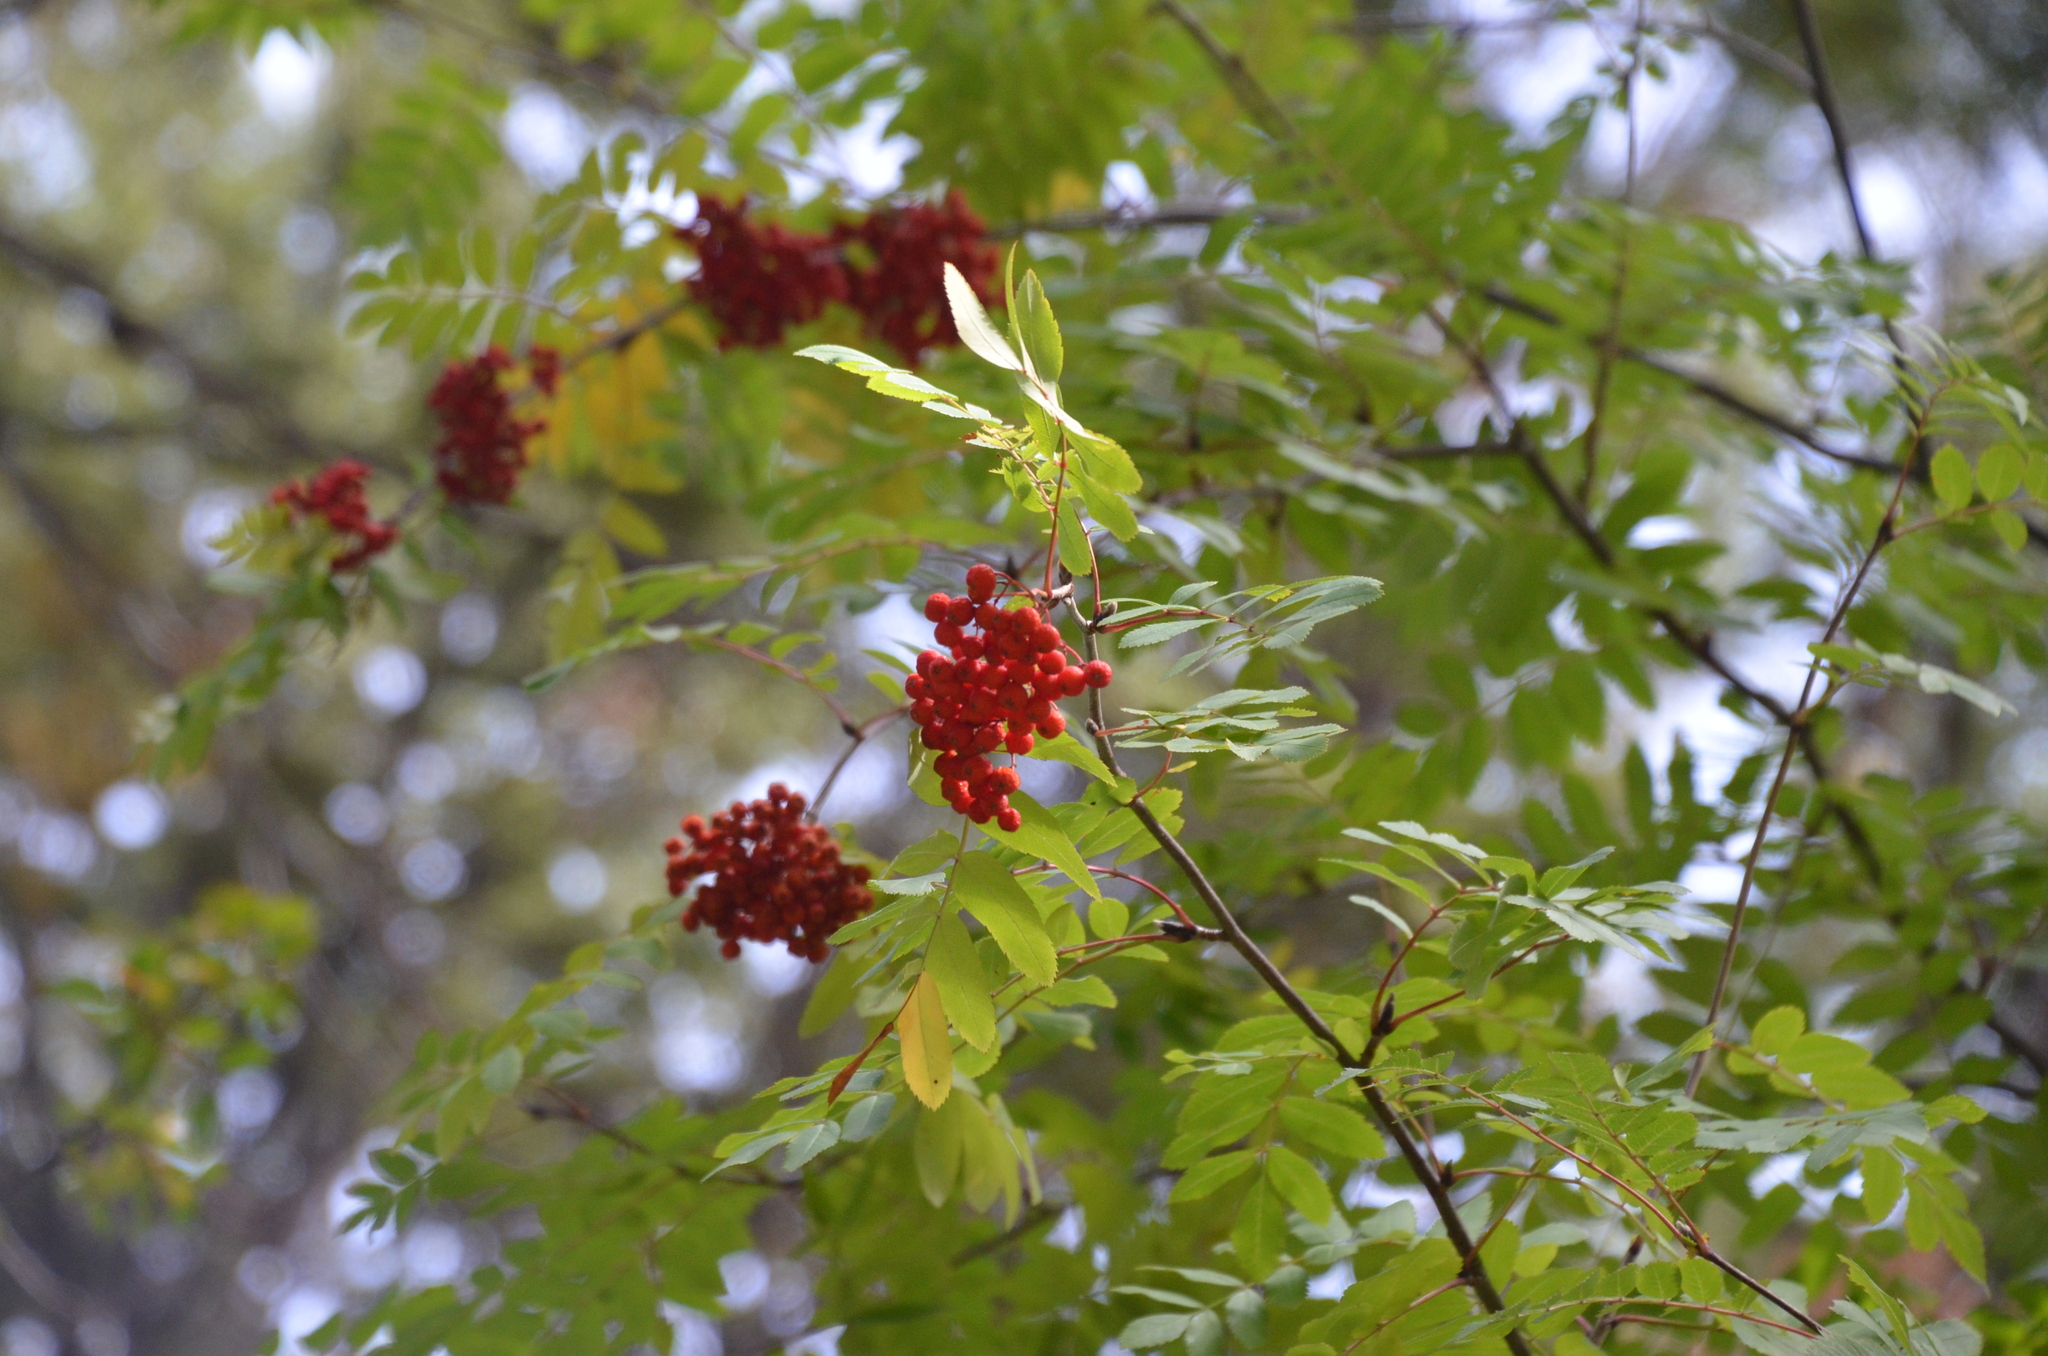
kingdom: Plantae
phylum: Tracheophyta
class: Magnoliopsida
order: Rosales
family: Rosaceae
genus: Sorbus
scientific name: Sorbus aucuparia
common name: Rowan
